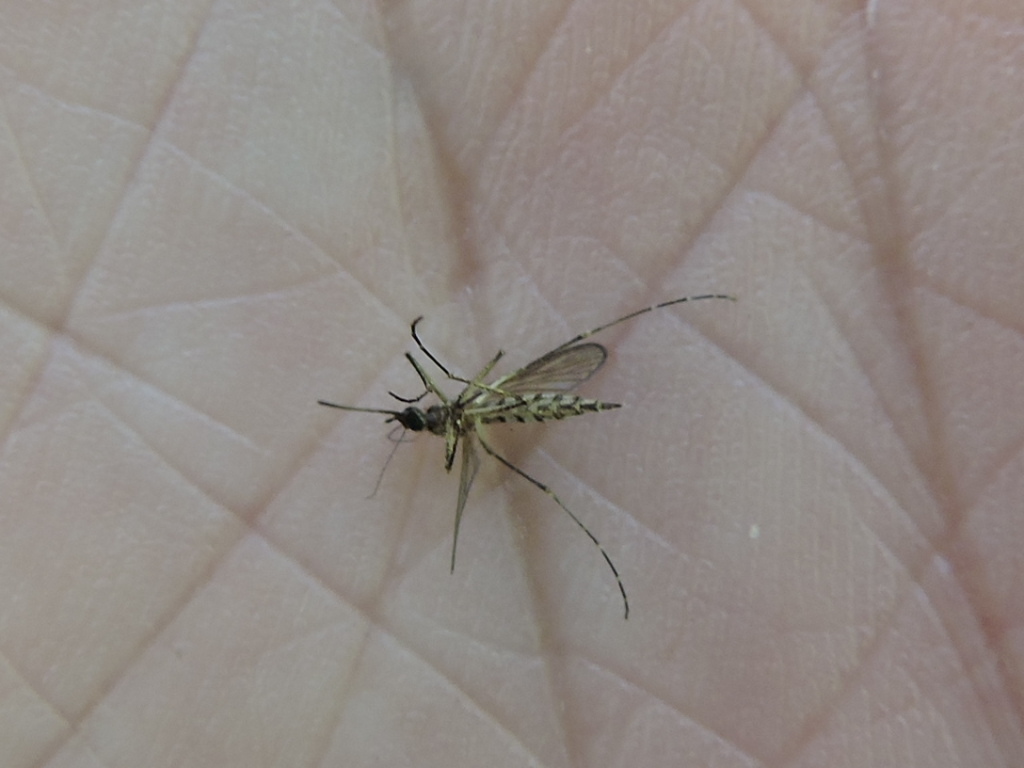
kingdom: Animalia
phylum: Arthropoda
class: Insecta
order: Diptera
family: Culicidae
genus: Aedes
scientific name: Aedes vexans
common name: Inland floodwater mosquito
